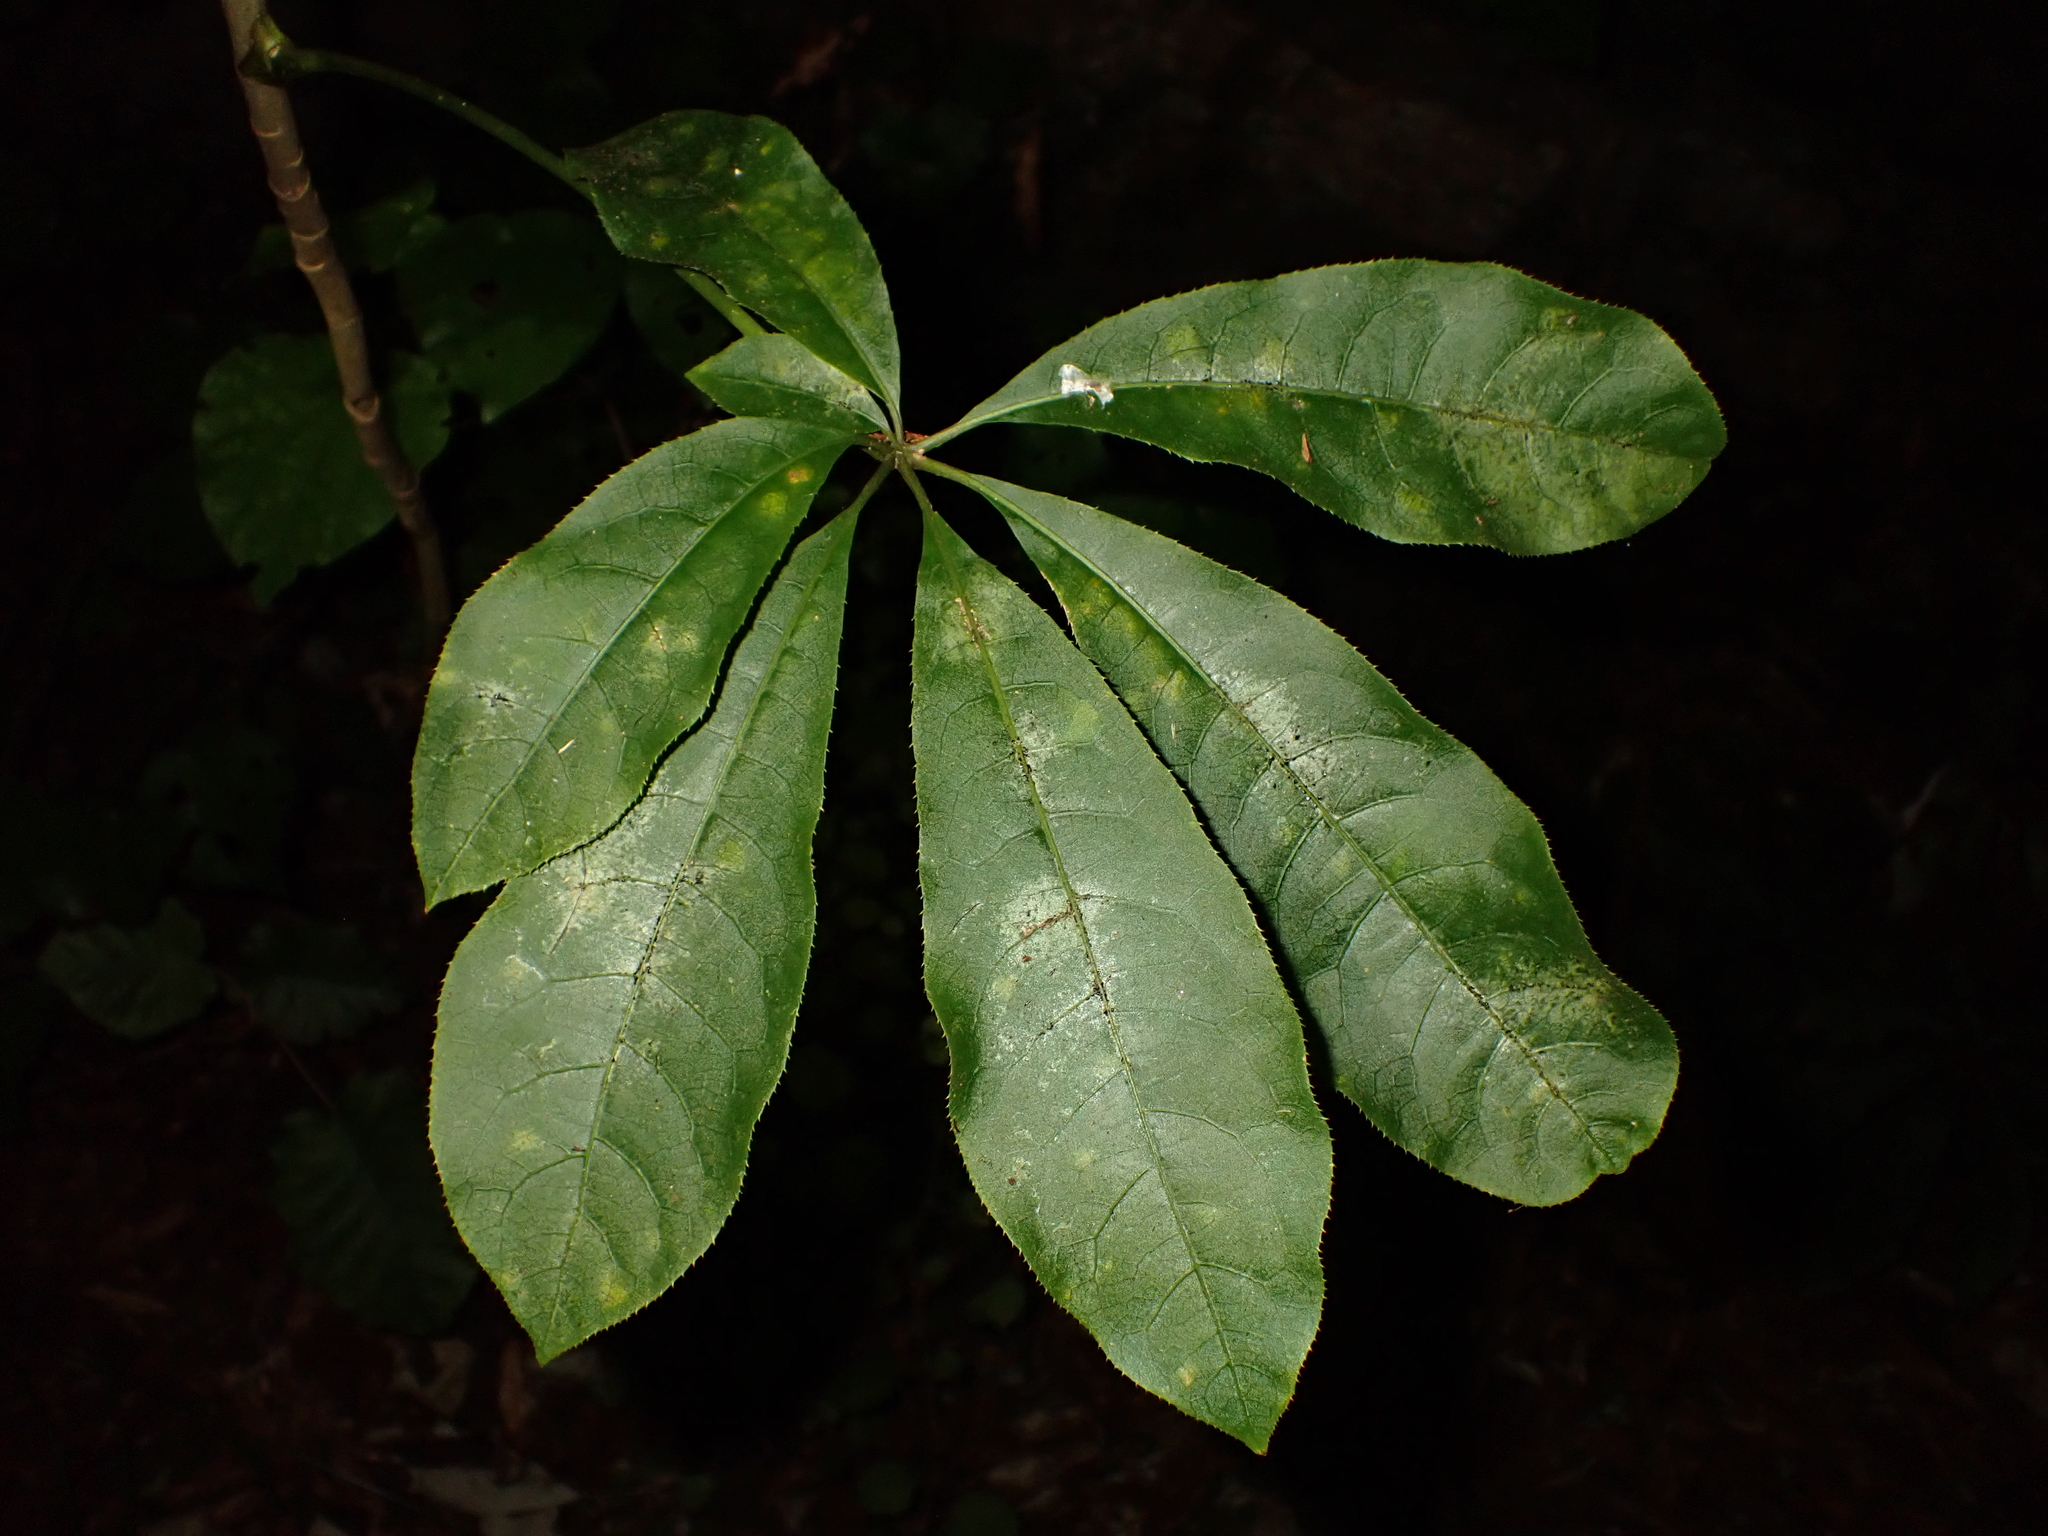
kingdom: Plantae
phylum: Tracheophyta
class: Magnoliopsida
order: Apiales
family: Araliaceae
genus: Schefflera
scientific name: Schefflera digitata
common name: Pate
